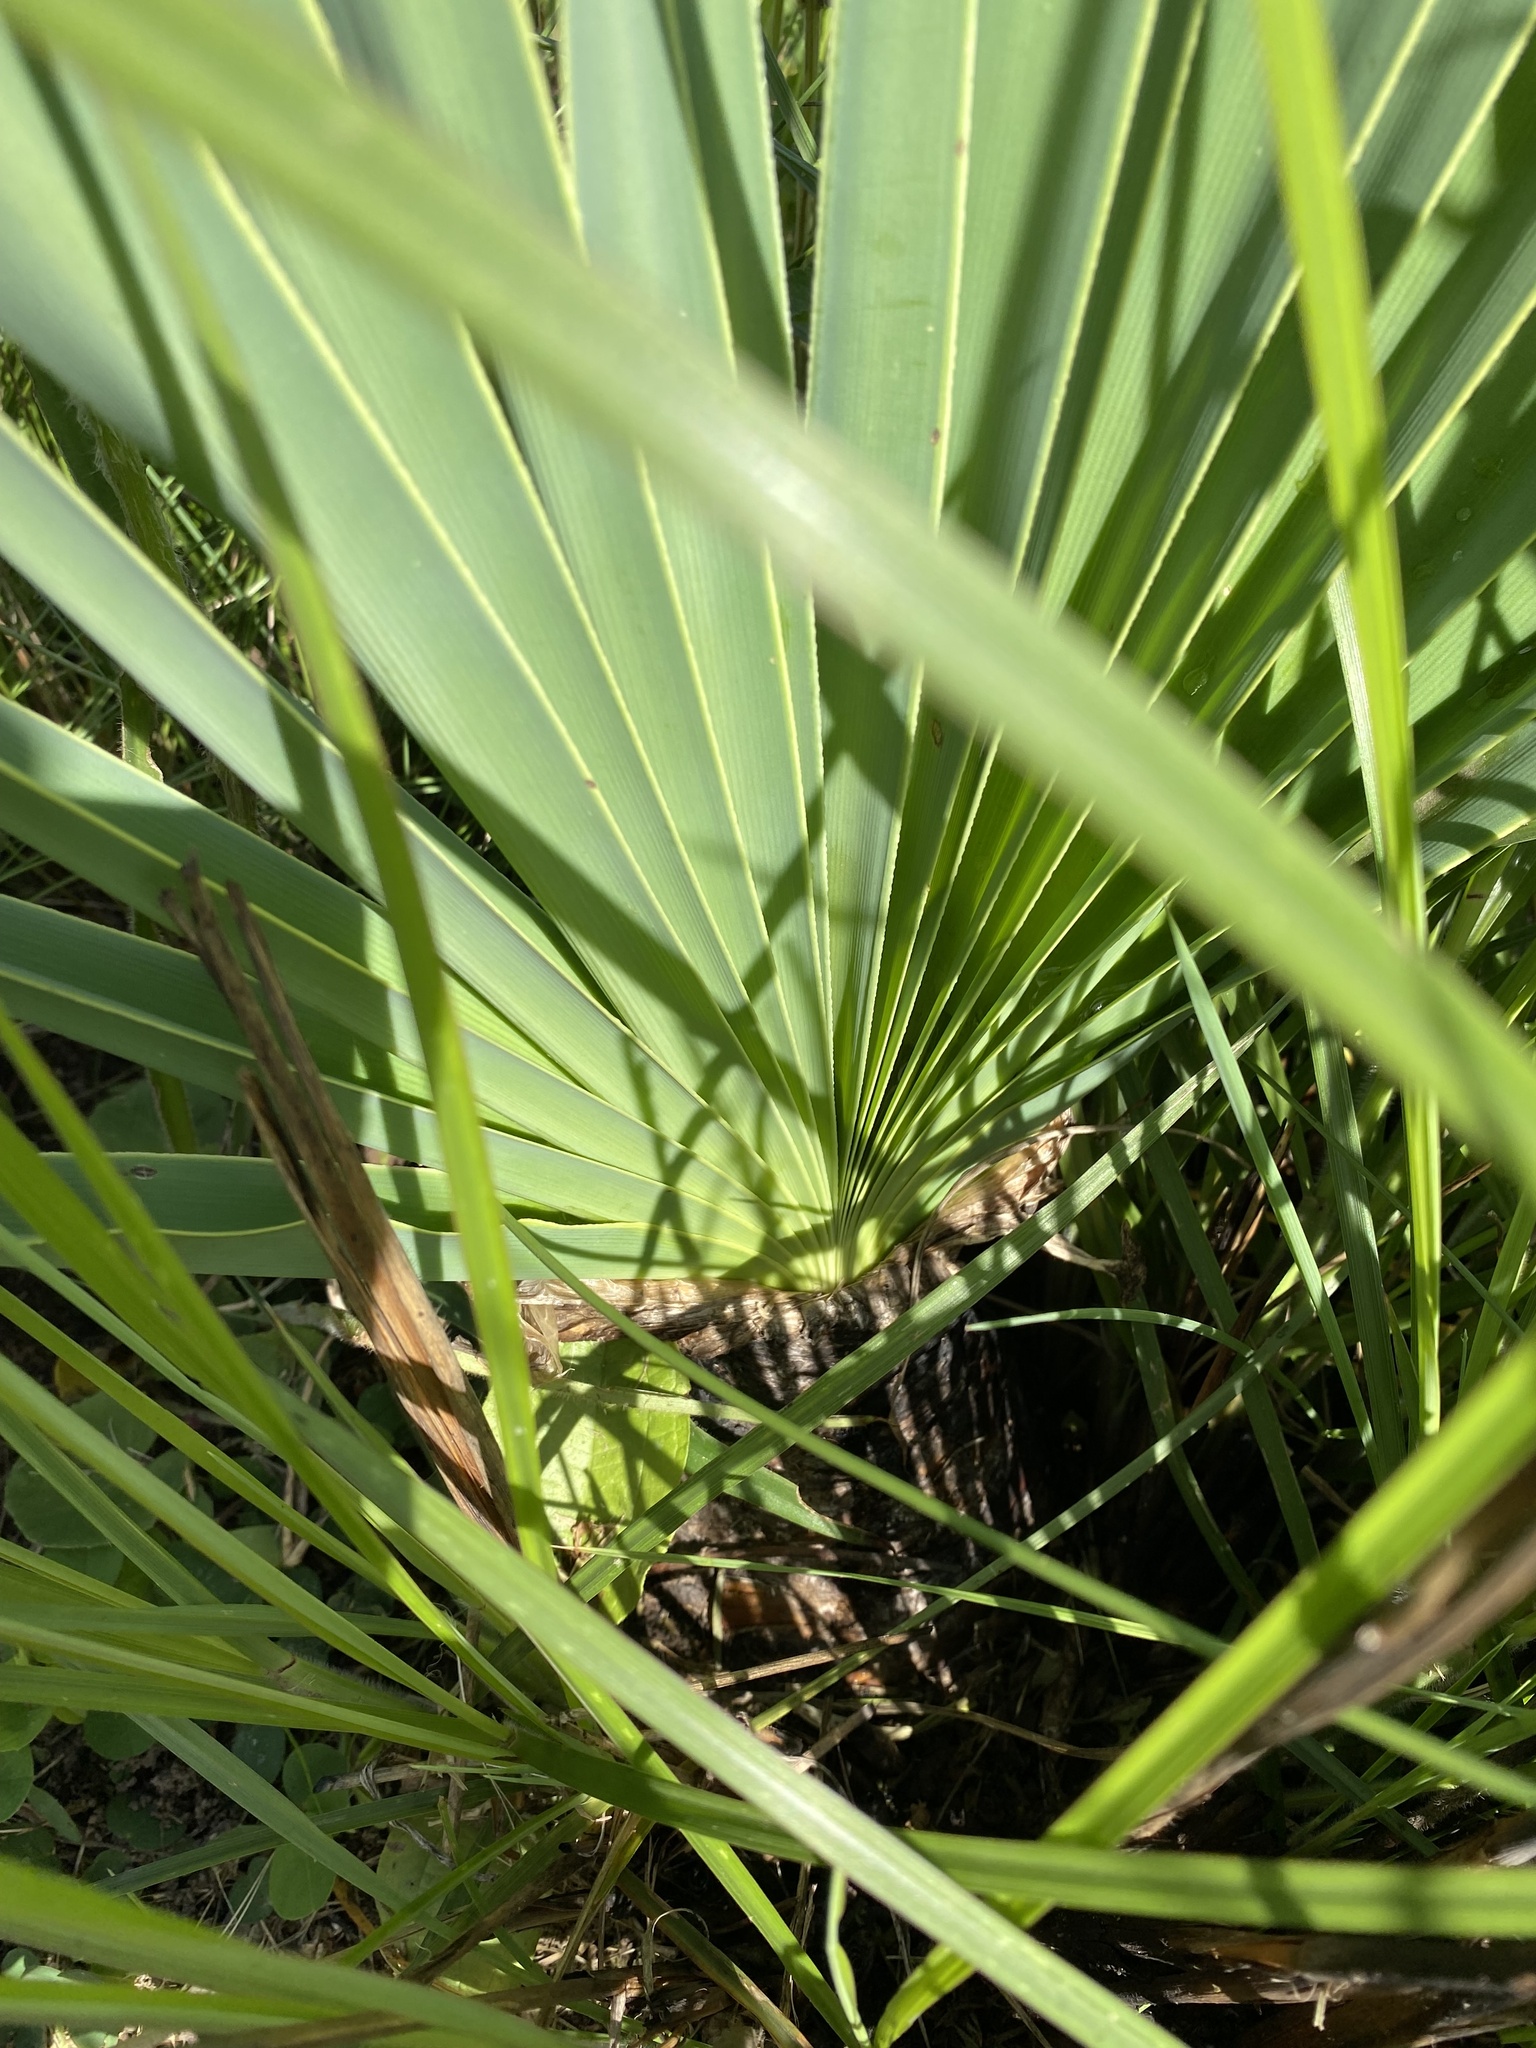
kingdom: Plantae
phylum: Tracheophyta
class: Liliopsida
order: Asparagales
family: Amaryllidaceae
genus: Boophone
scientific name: Boophone disticha
